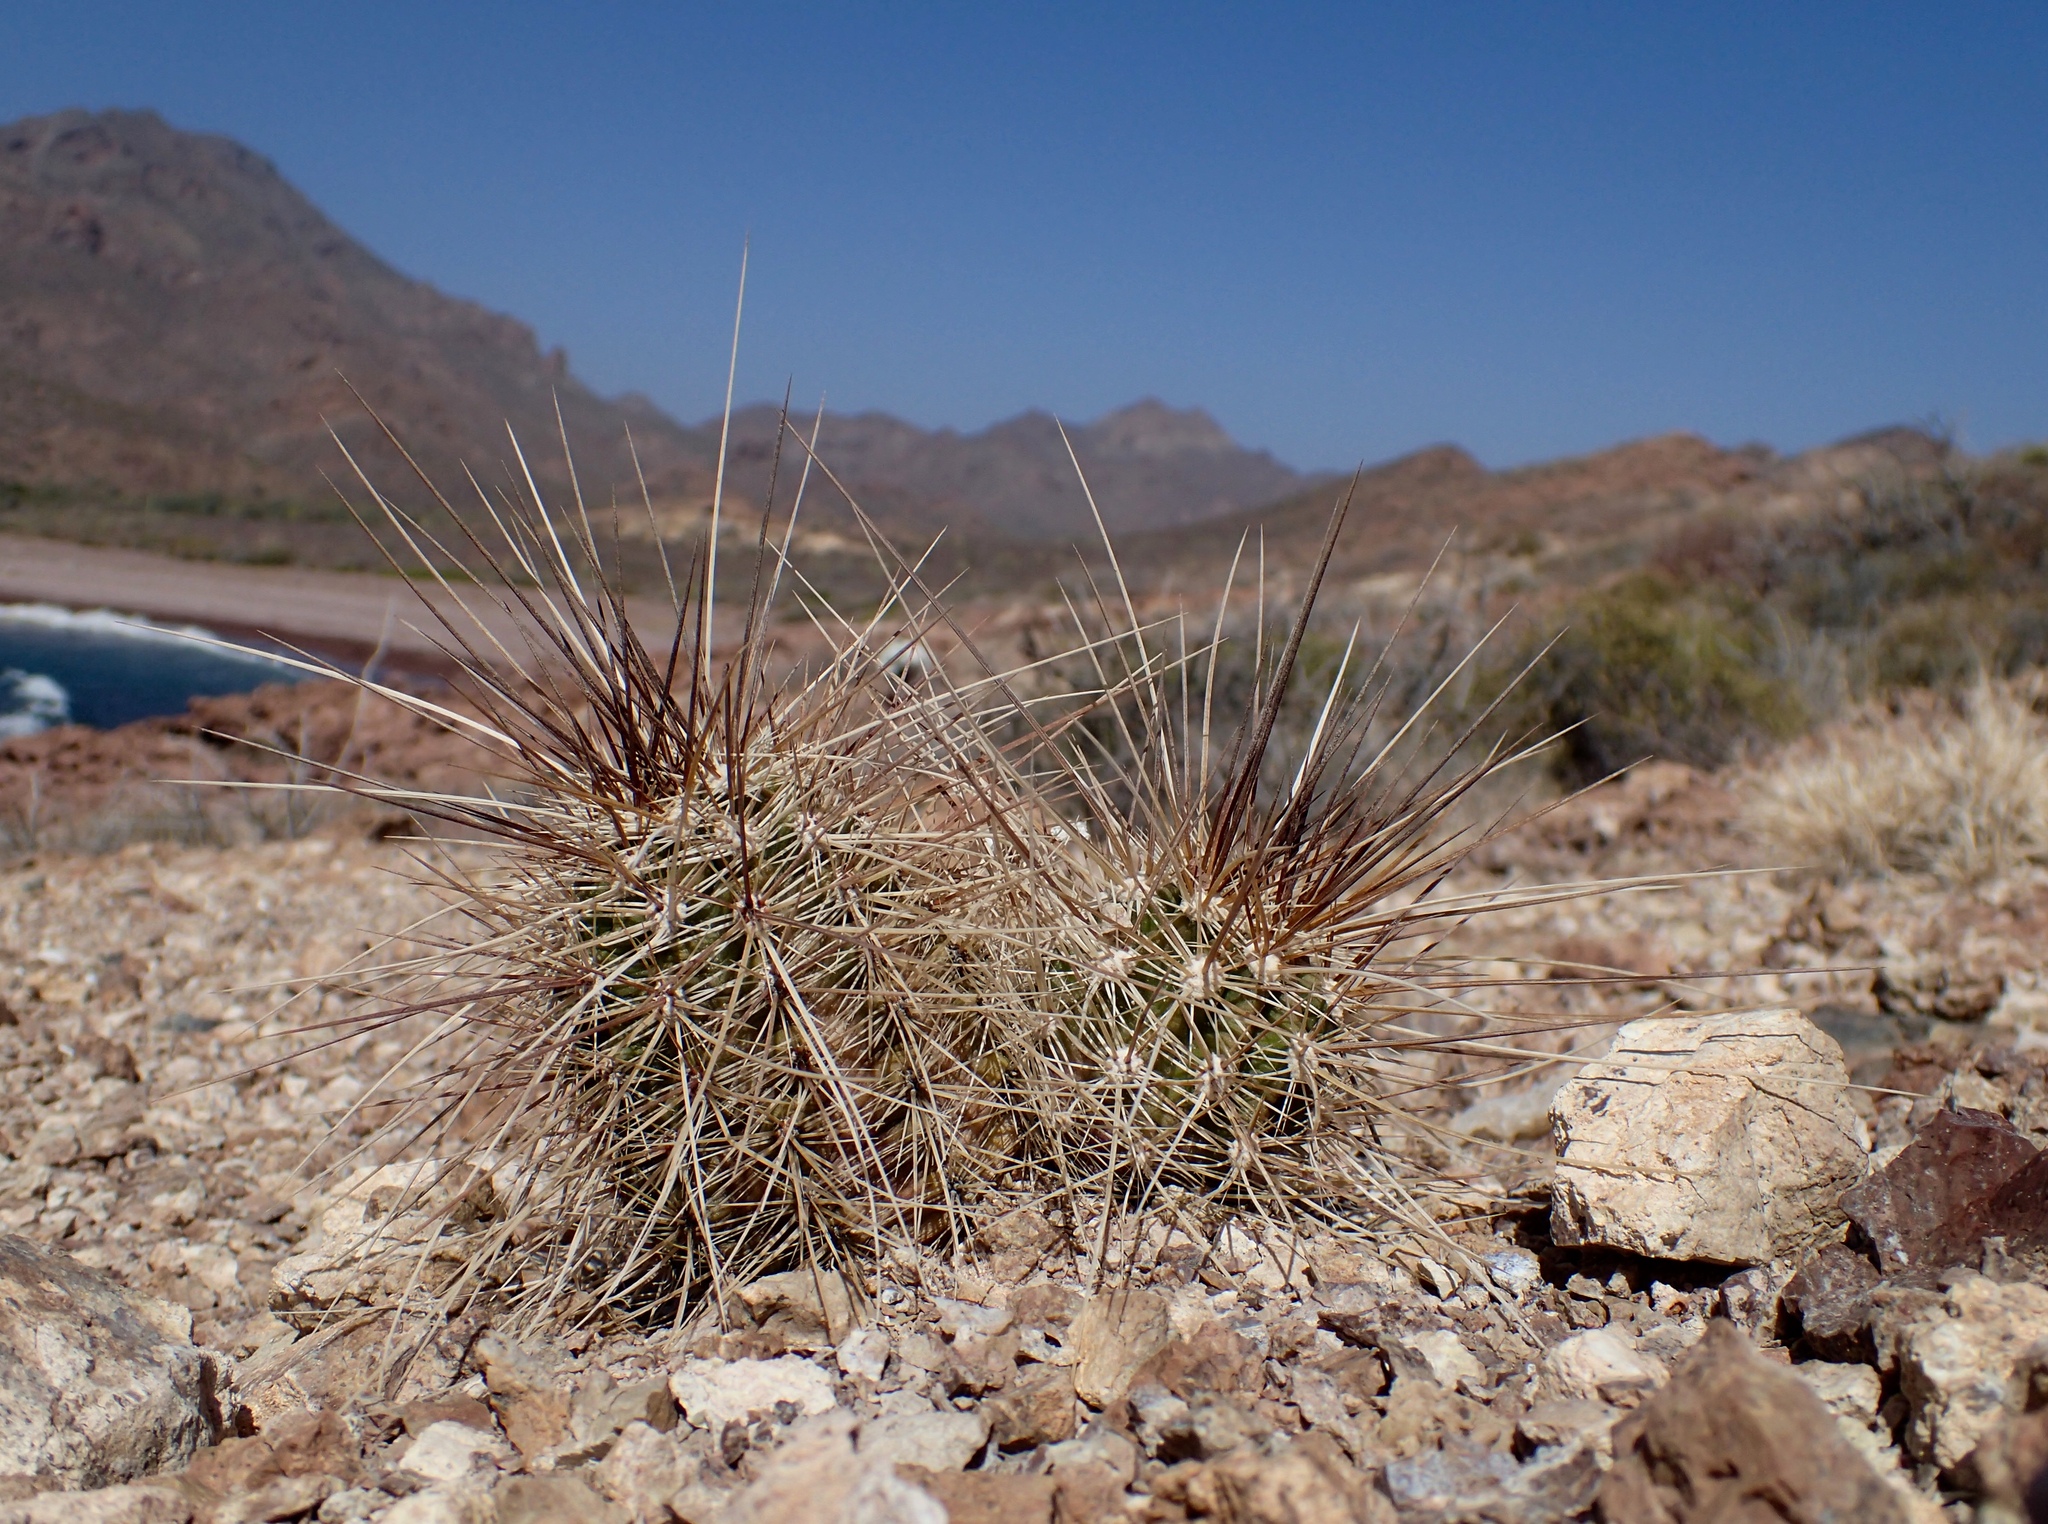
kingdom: Plantae
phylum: Tracheophyta
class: Magnoliopsida
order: Caryophyllales
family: Cactaceae
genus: Echinocereus
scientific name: Echinocereus llanurensis
